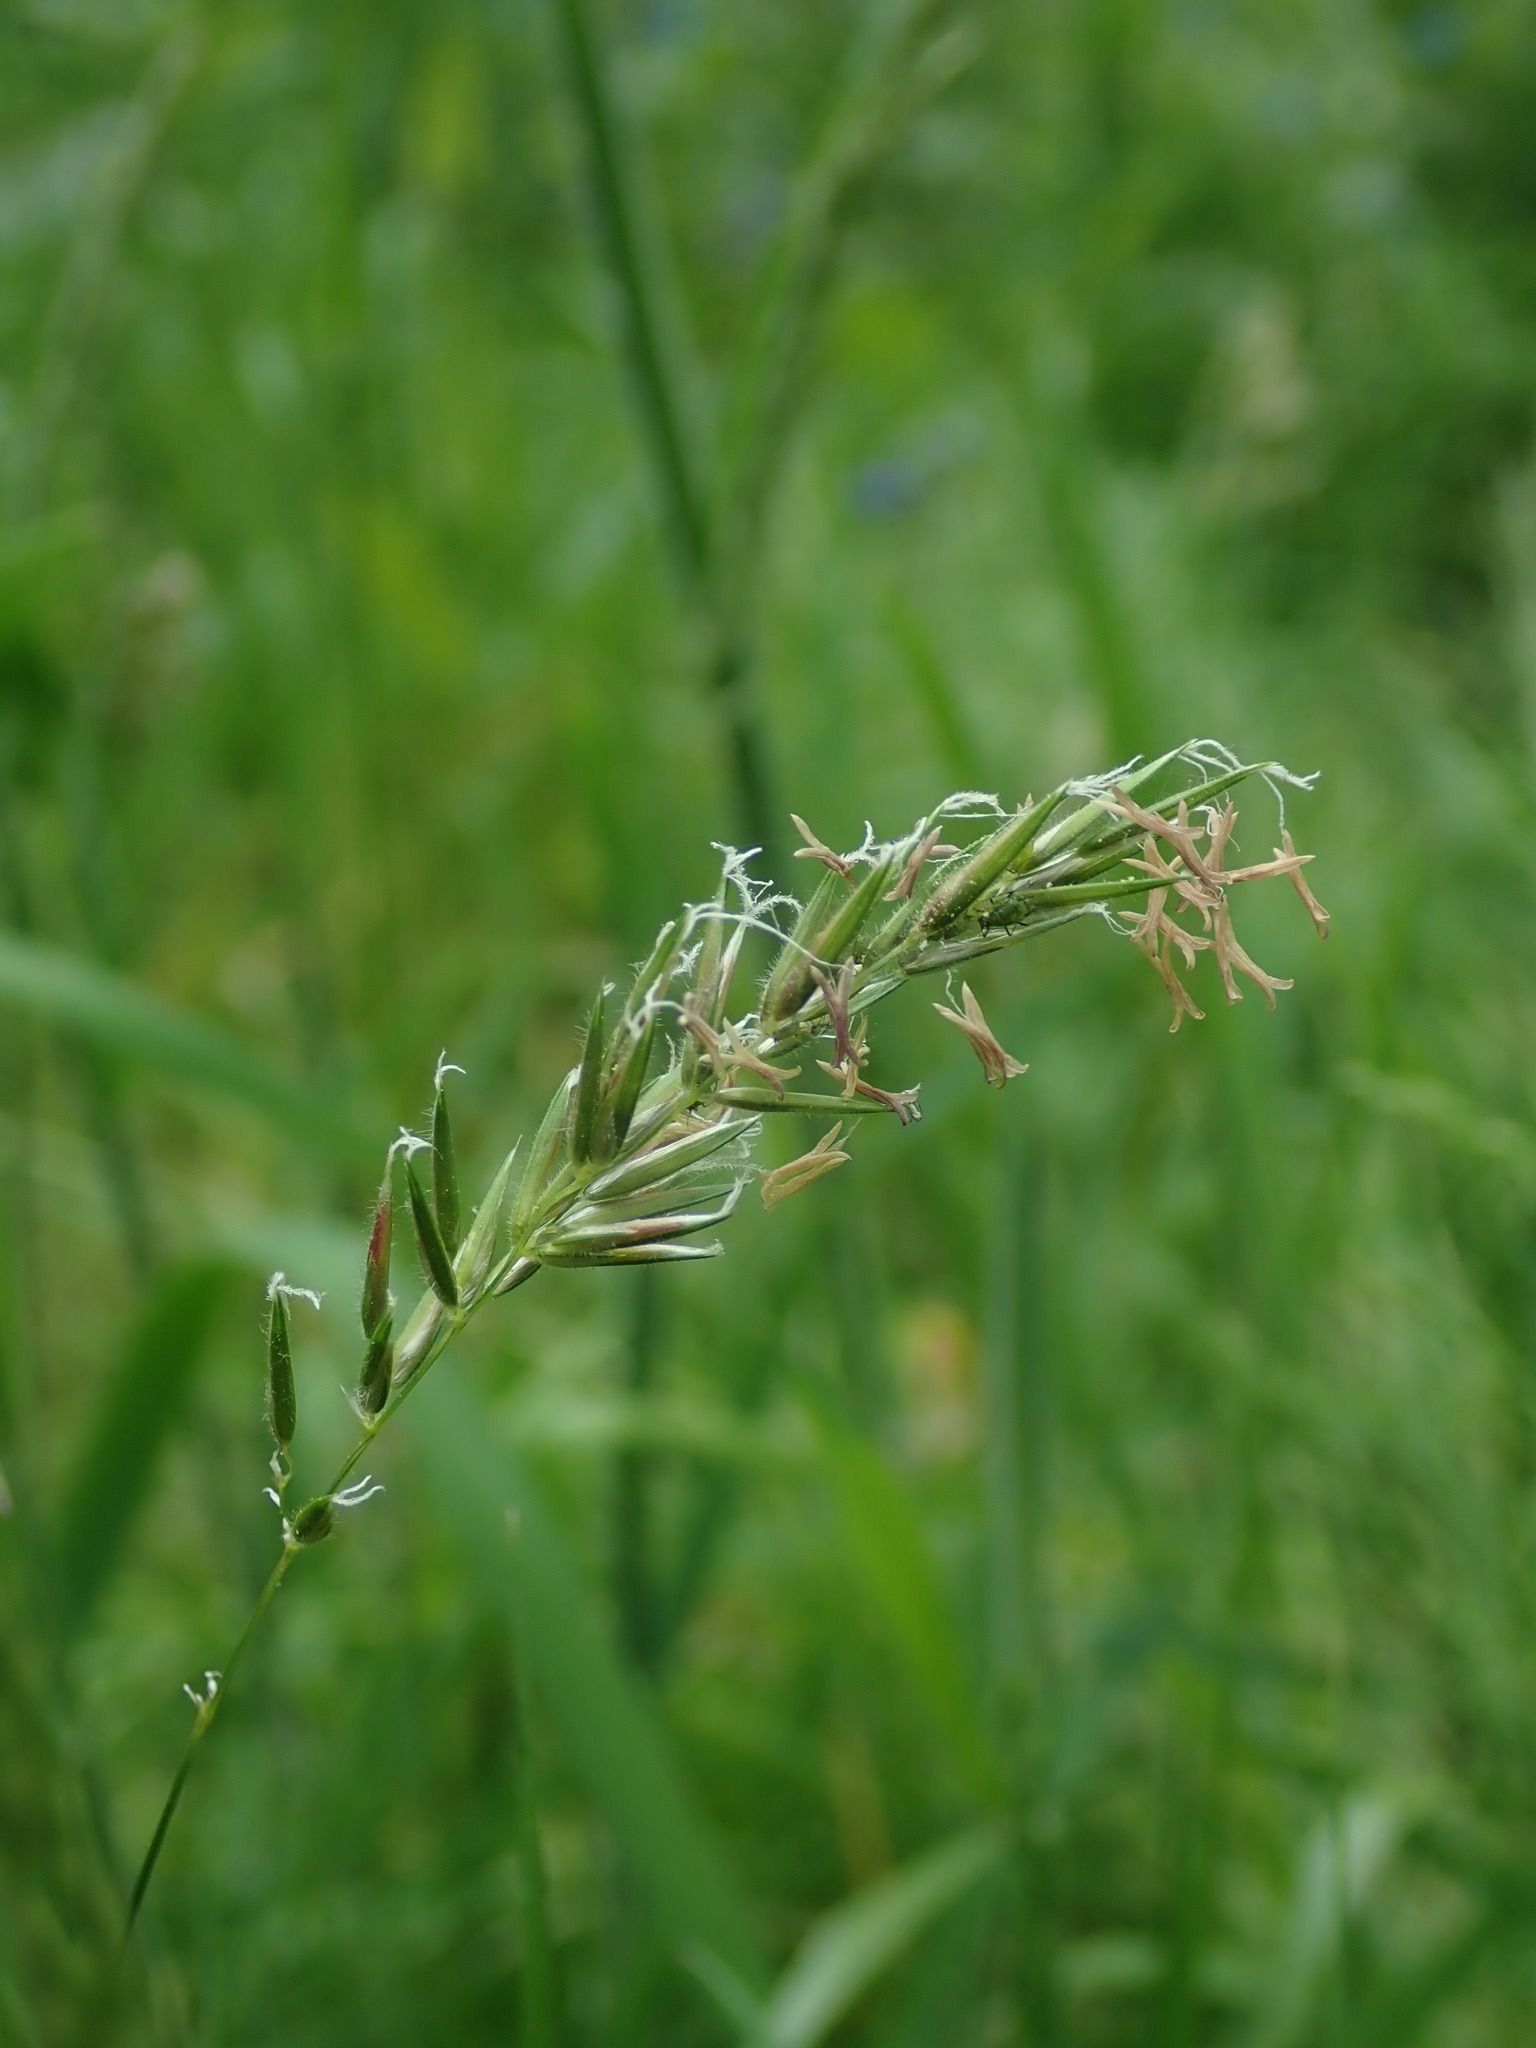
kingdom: Plantae
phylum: Tracheophyta
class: Liliopsida
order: Poales
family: Poaceae
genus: Anthoxanthum
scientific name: Anthoxanthum odoratum
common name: Sweet vernalgrass
